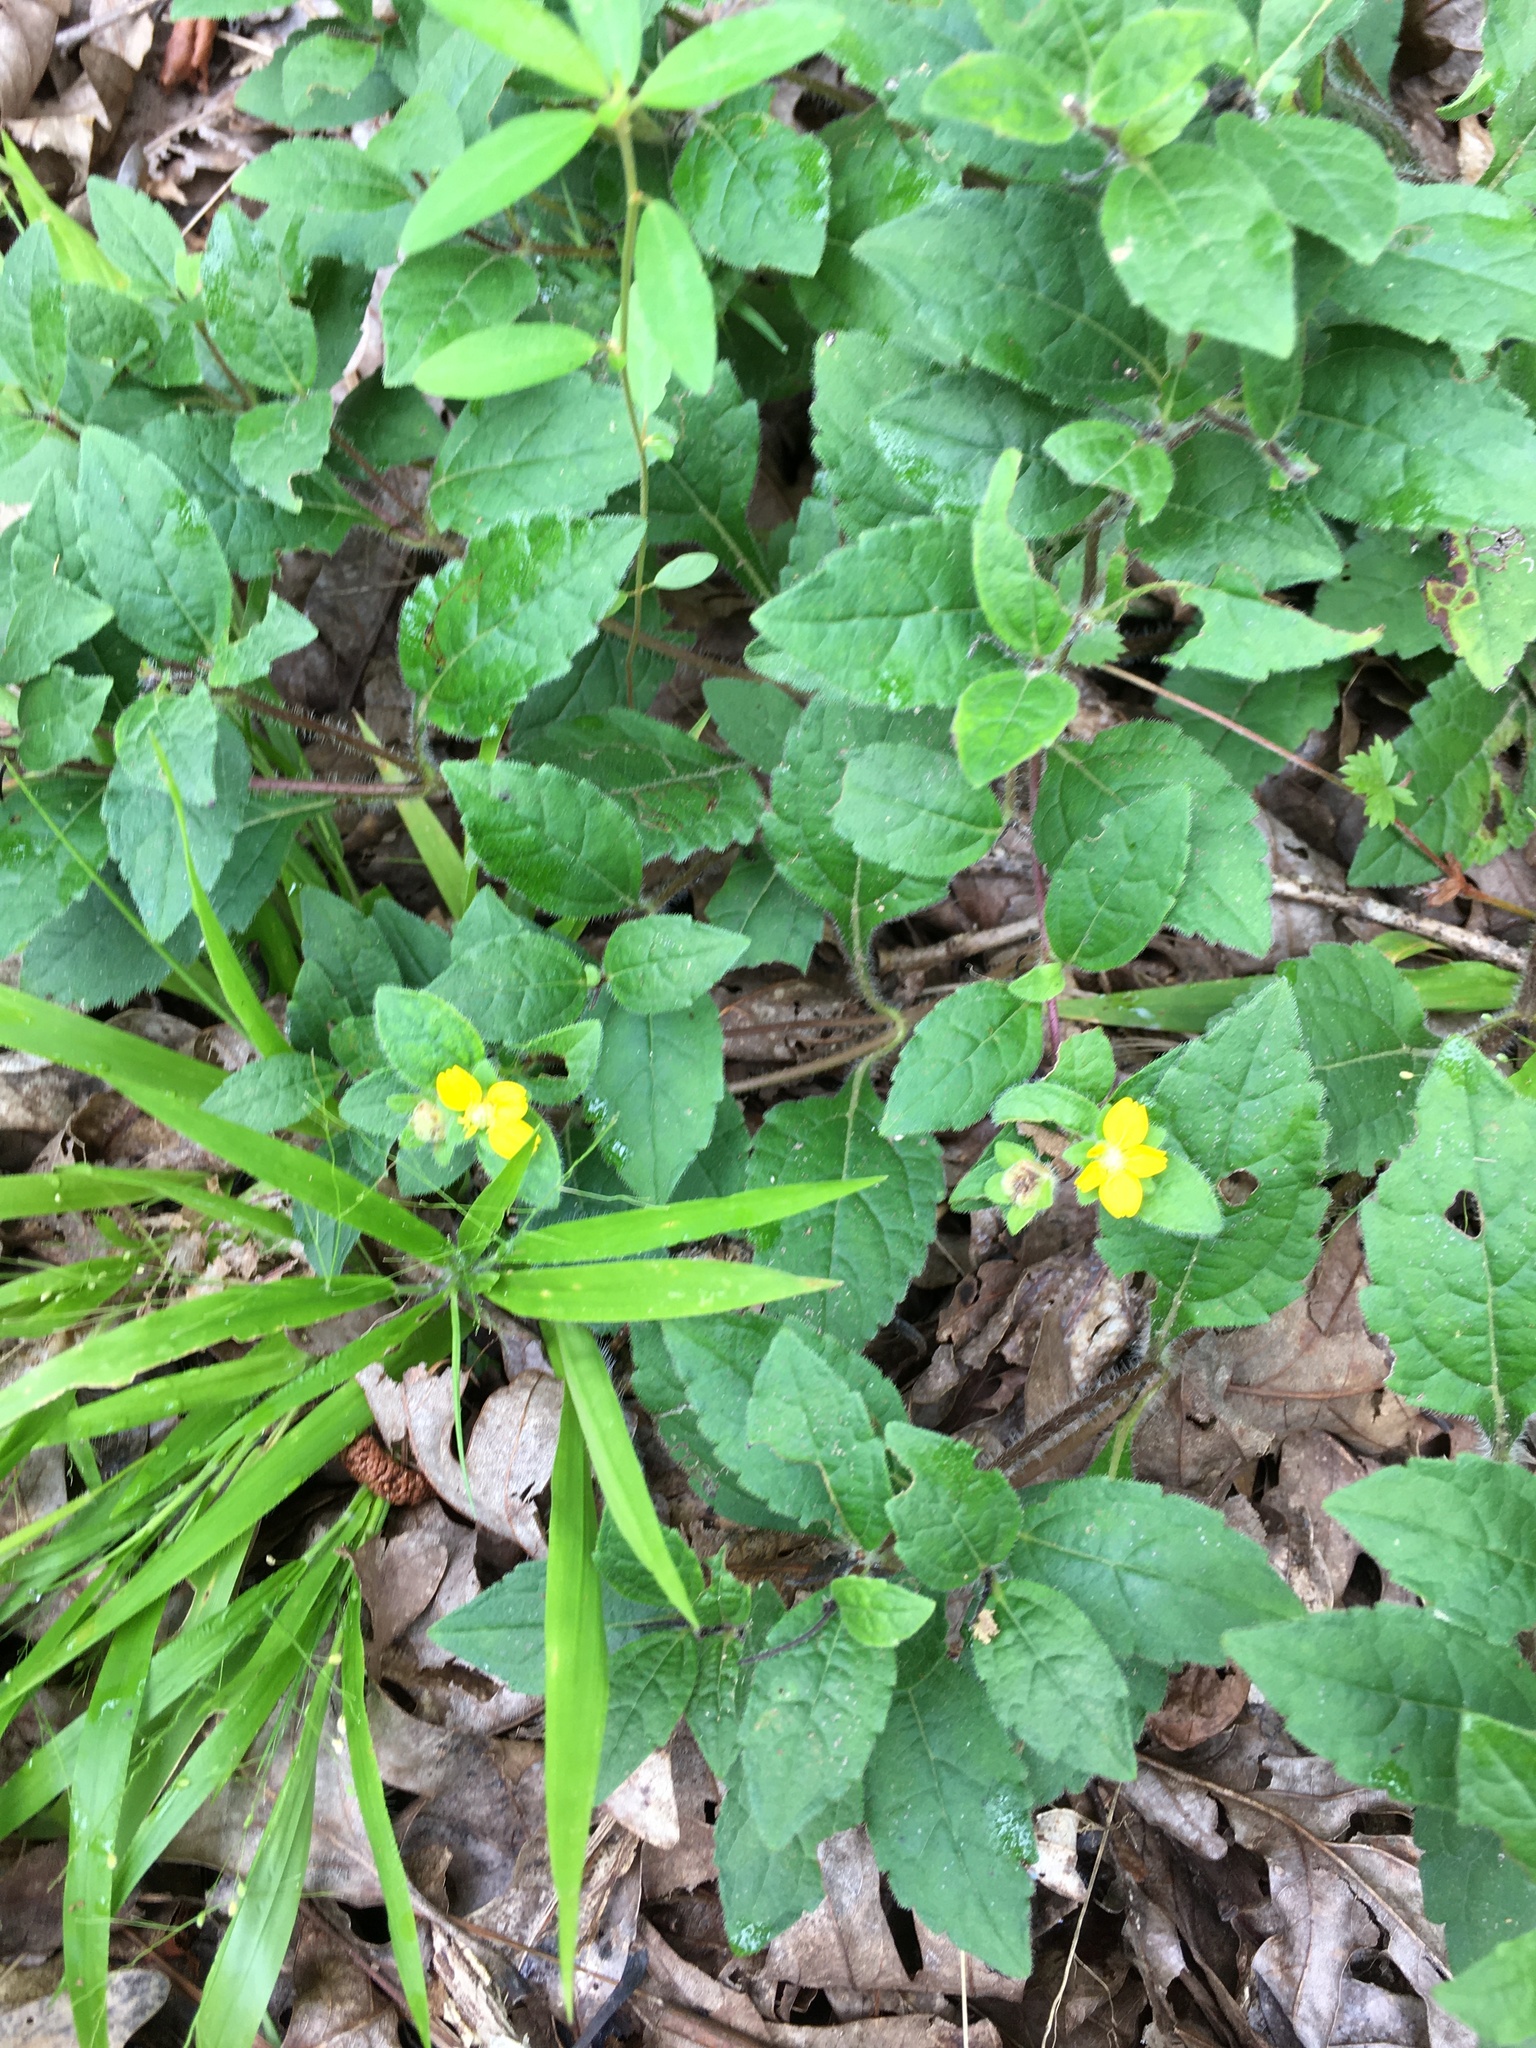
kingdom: Plantae
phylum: Tracheophyta
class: Magnoliopsida
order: Asterales
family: Asteraceae
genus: Chrysogonum
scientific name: Chrysogonum virginianum
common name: Golden-knee
